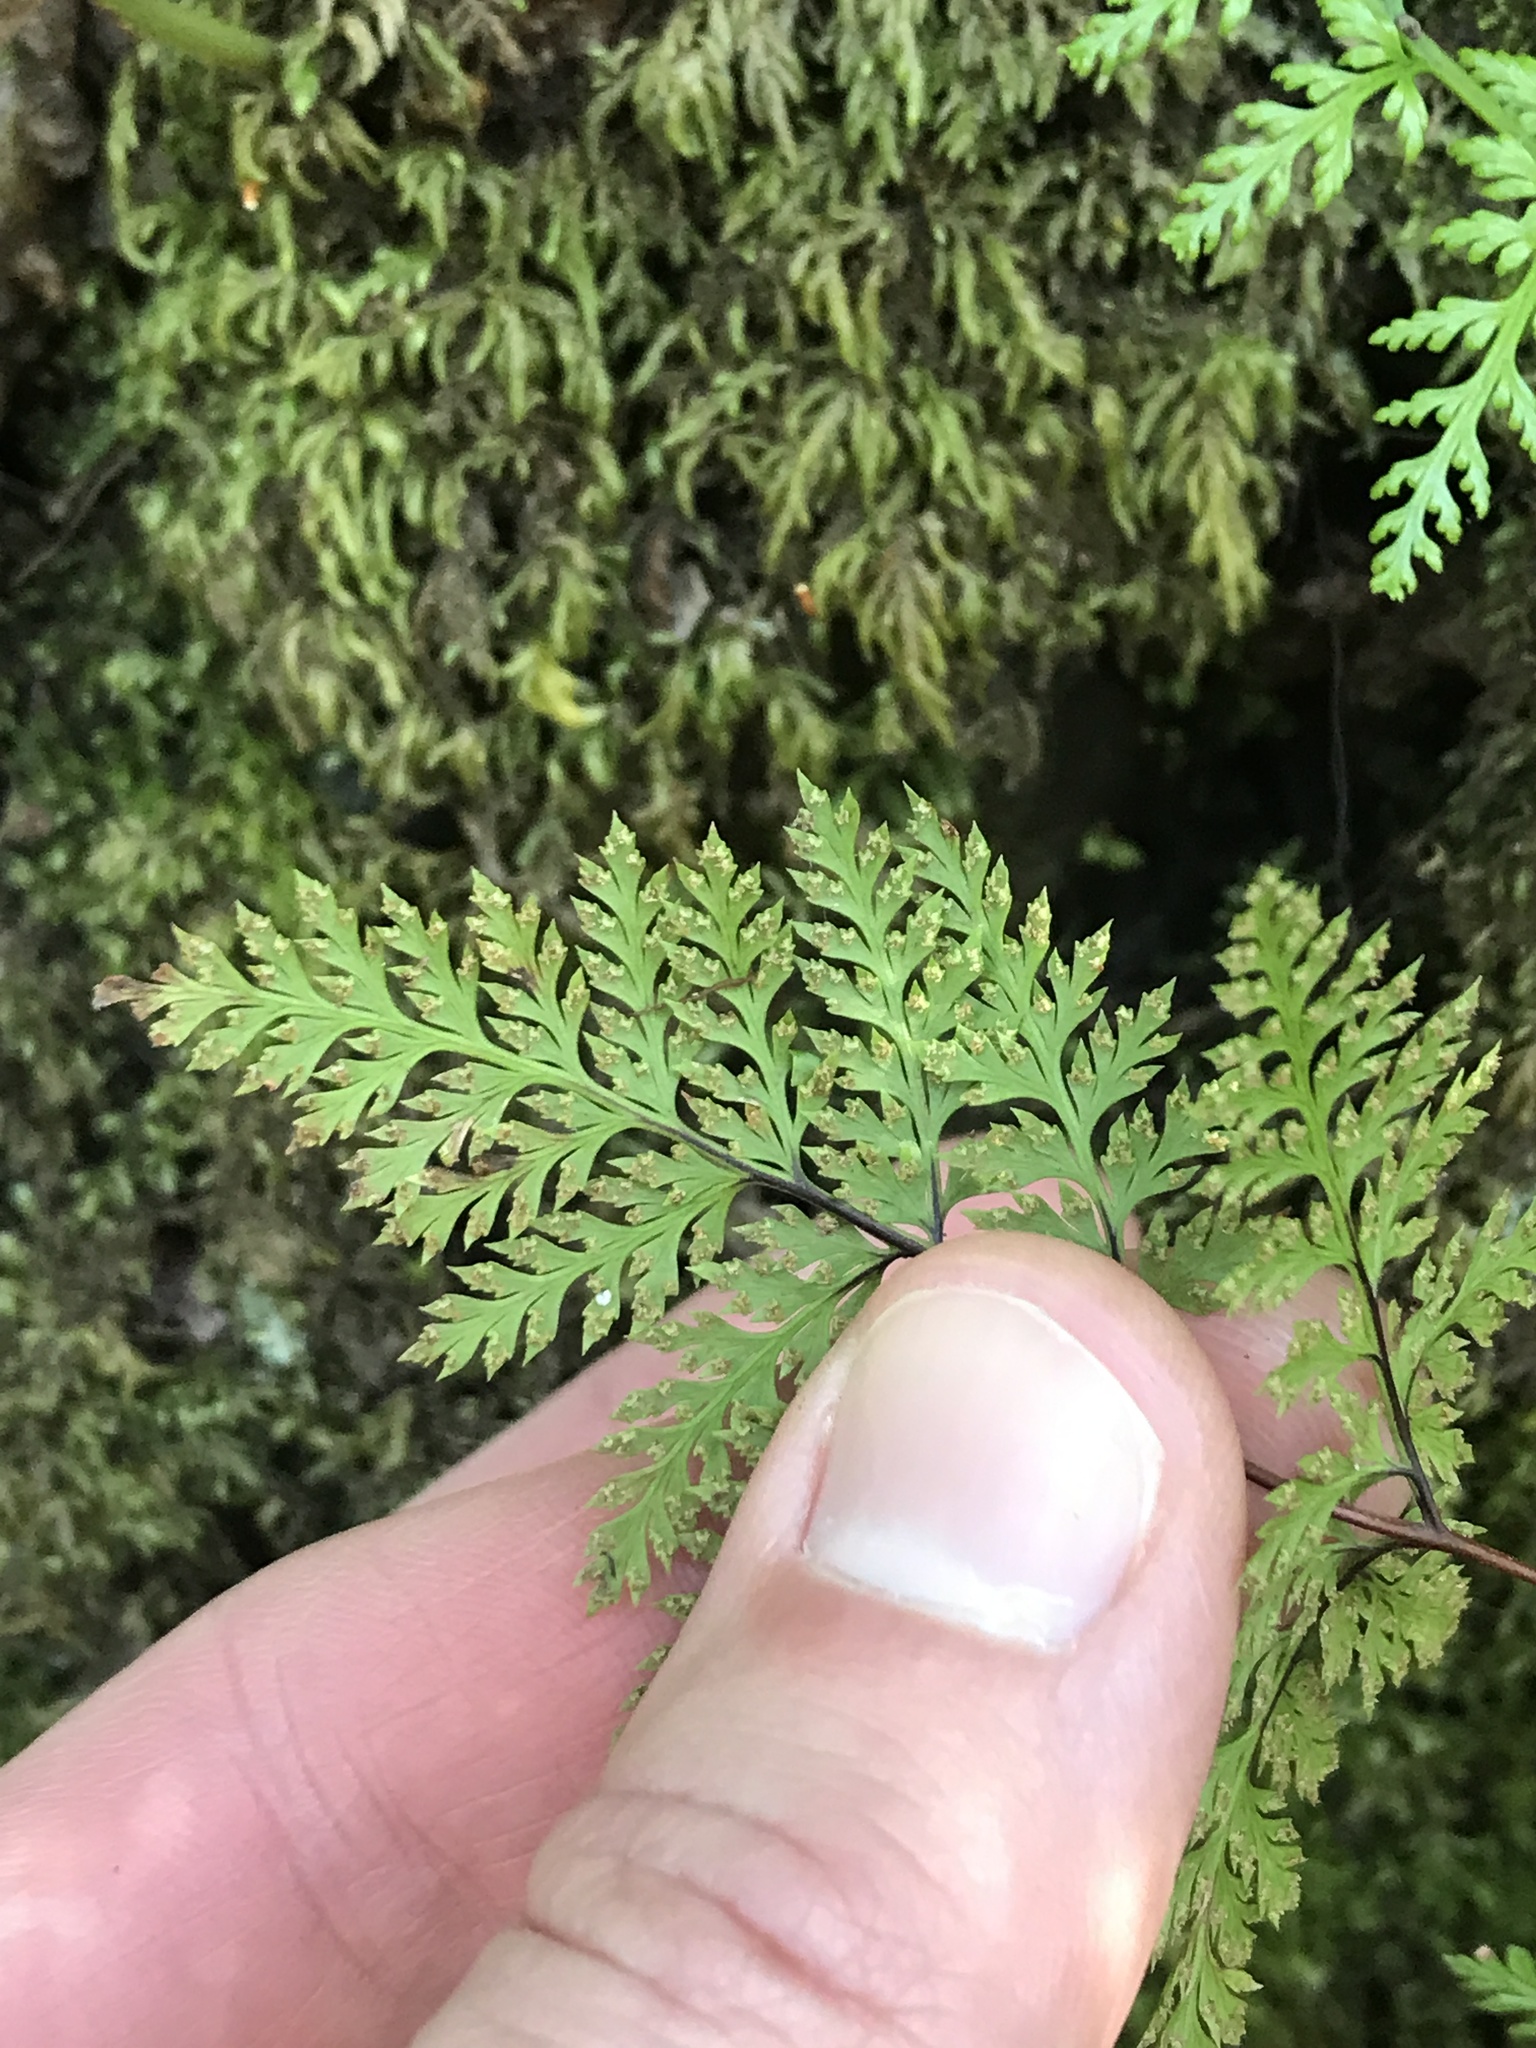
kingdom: Plantae
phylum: Tracheophyta
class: Polypodiopsida
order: Polypodiales
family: Pteridaceae
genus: Aspidotis
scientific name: Aspidotis californica
